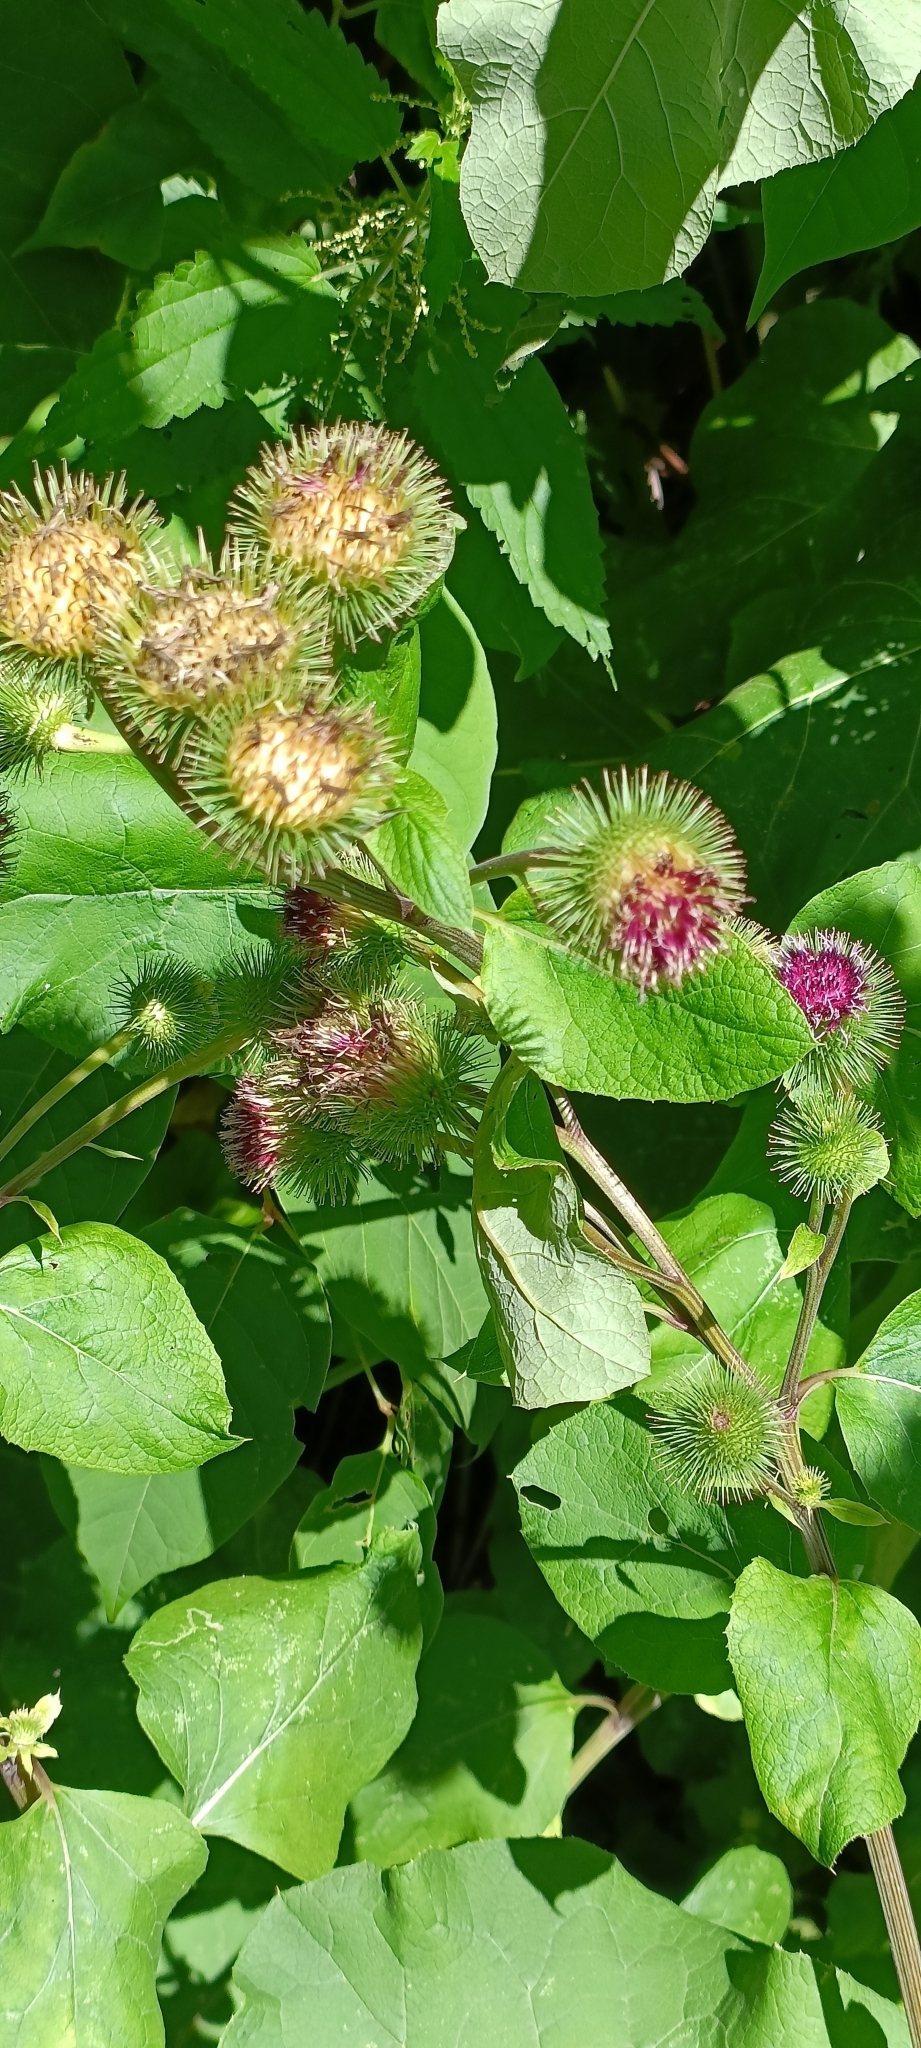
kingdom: Plantae
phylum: Tracheophyta
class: Magnoliopsida
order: Asterales
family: Asteraceae
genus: Arctium
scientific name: Arctium lappa
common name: Greater burdock
